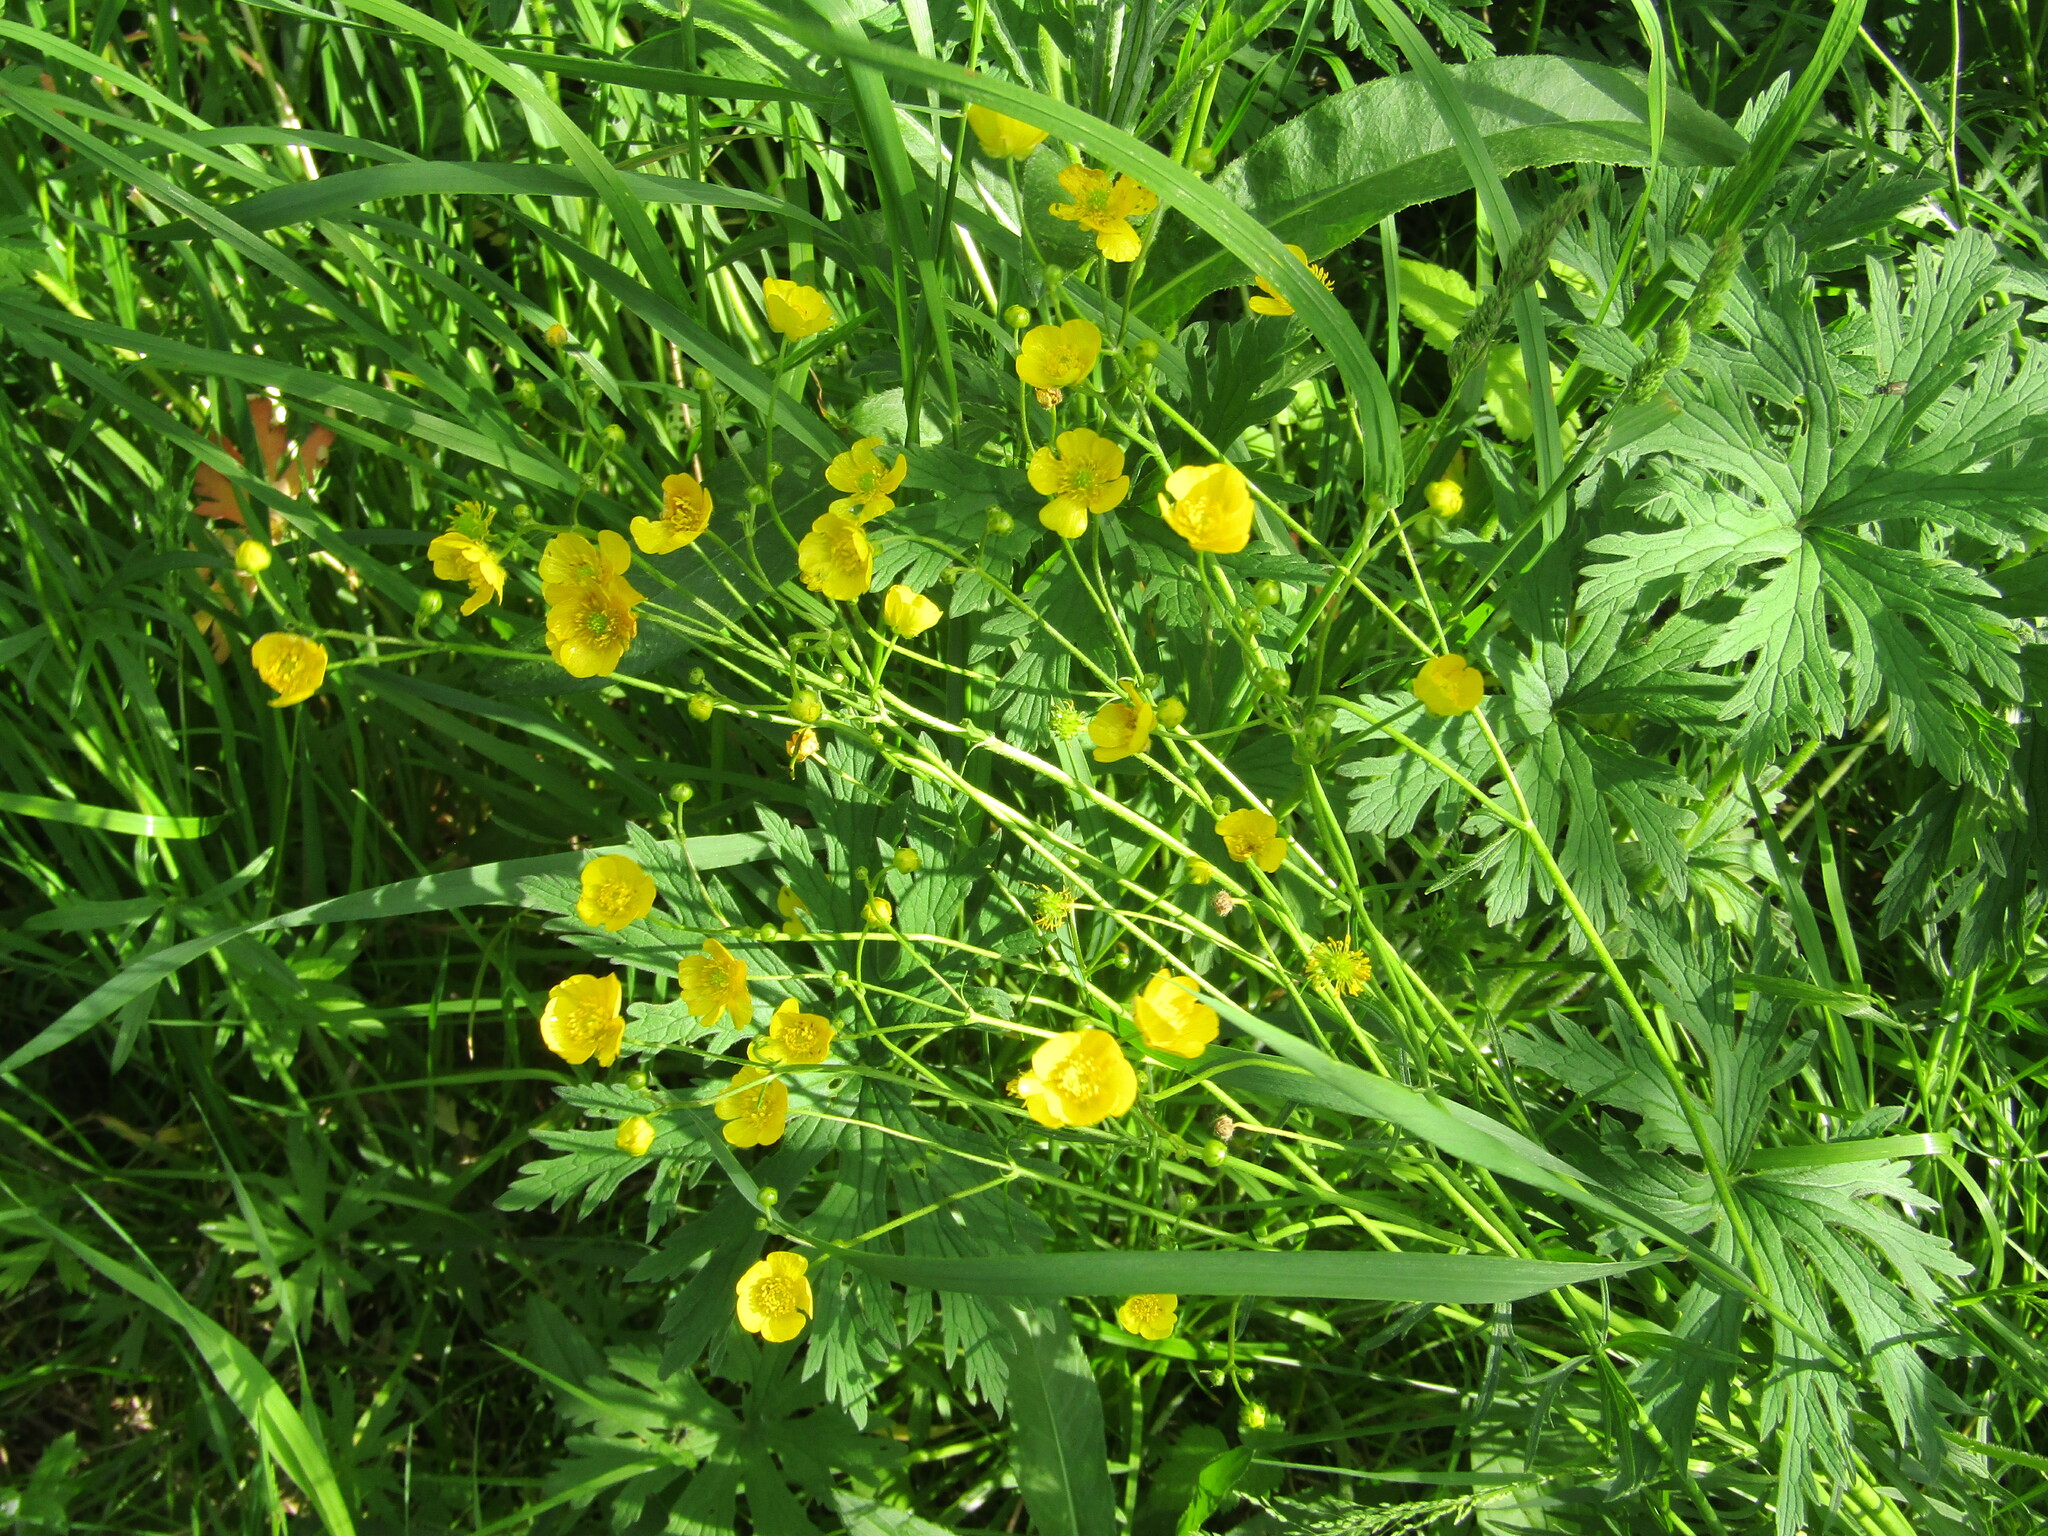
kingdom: Plantae
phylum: Tracheophyta
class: Magnoliopsida
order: Ranunculales
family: Ranunculaceae
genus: Ranunculus
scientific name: Ranunculus acris
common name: Meadow buttercup
